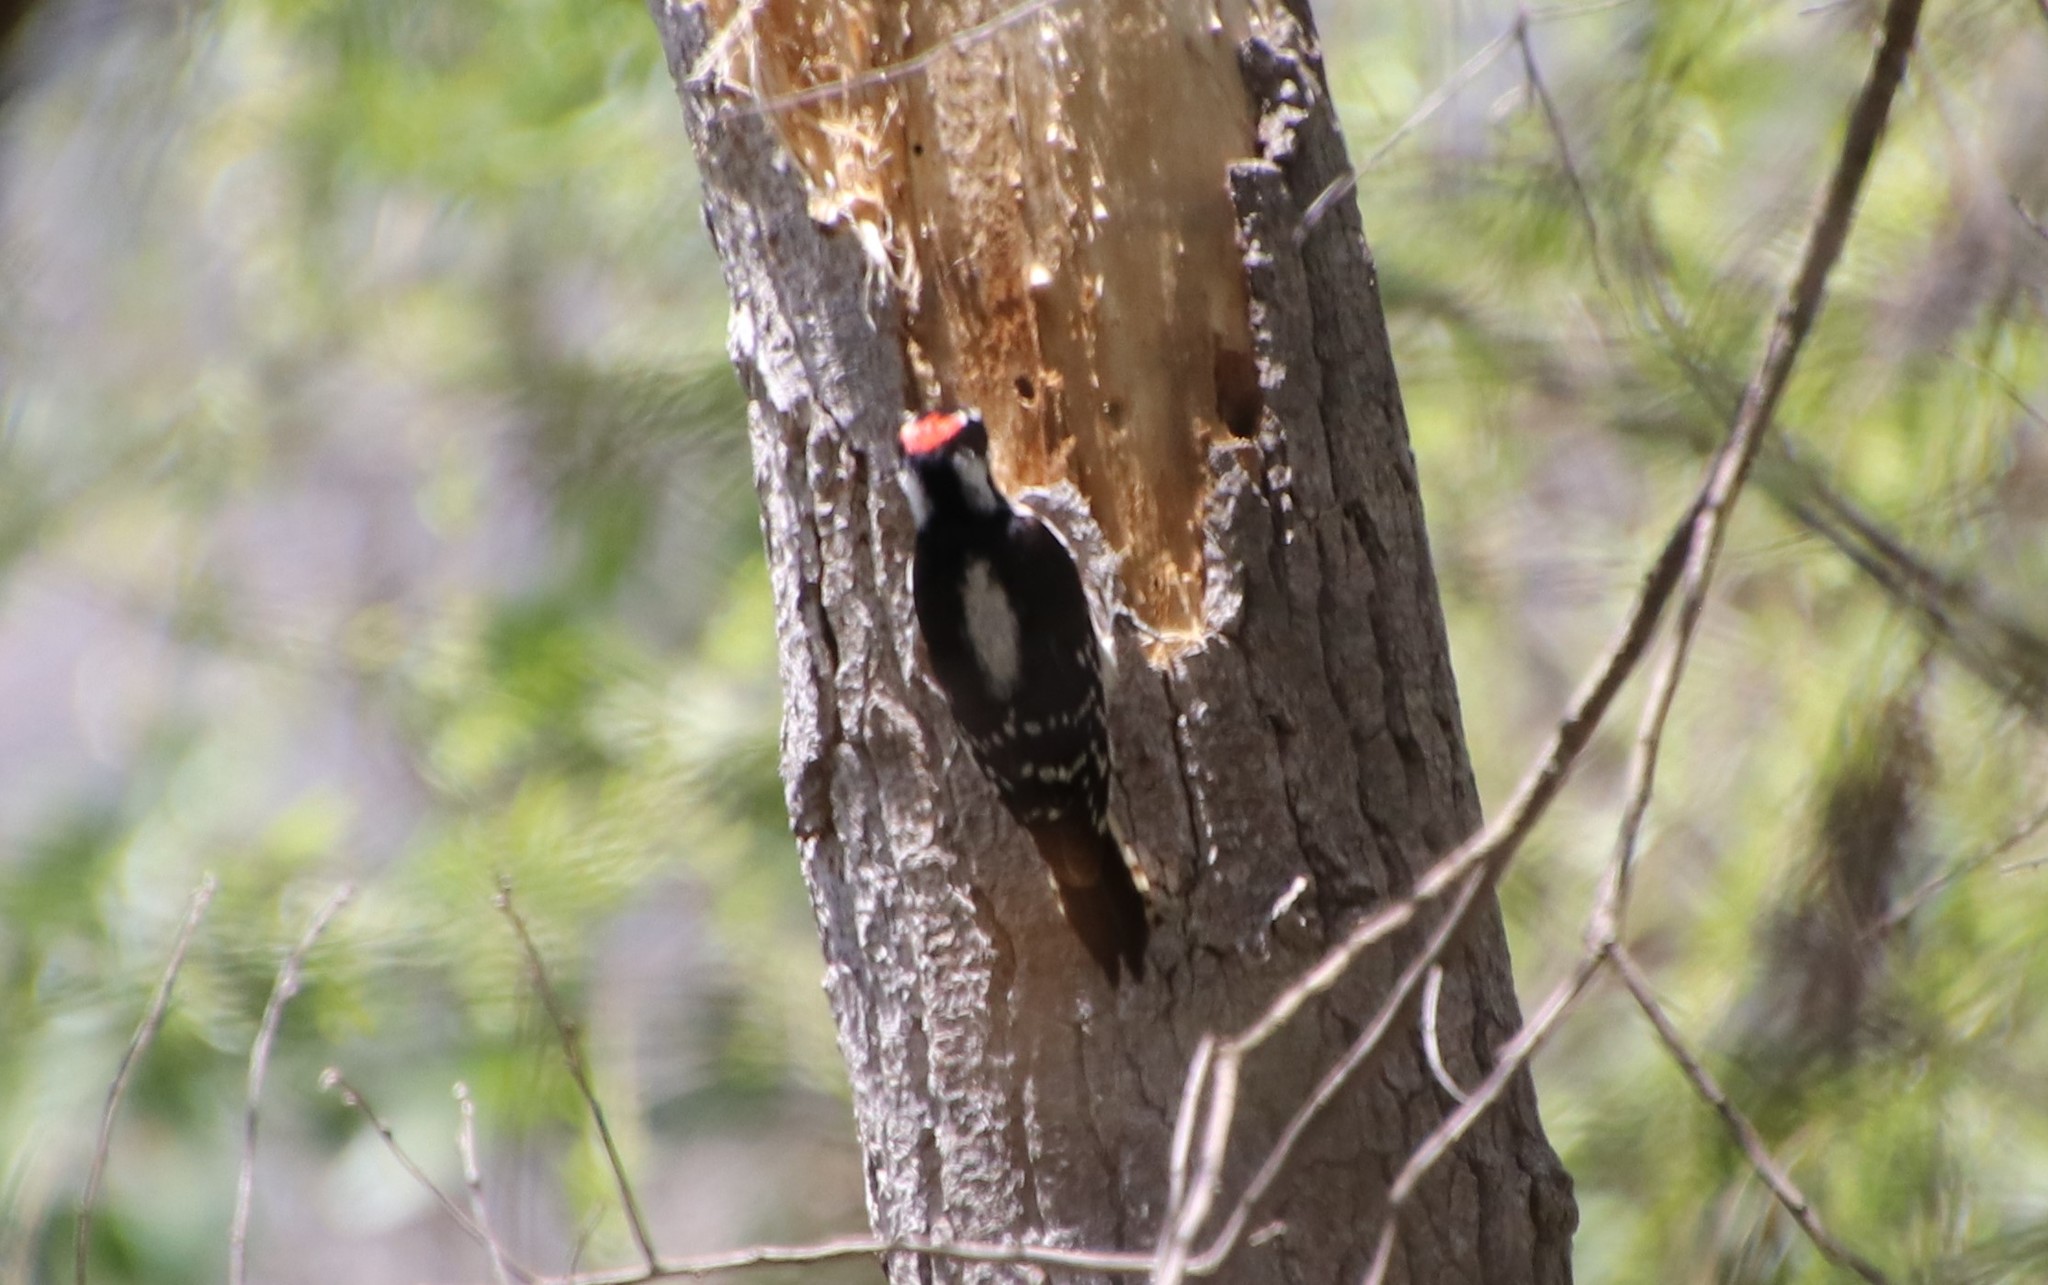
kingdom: Animalia
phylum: Chordata
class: Aves
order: Piciformes
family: Picidae
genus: Dryobates
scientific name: Dryobates pubescens
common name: Downy woodpecker
